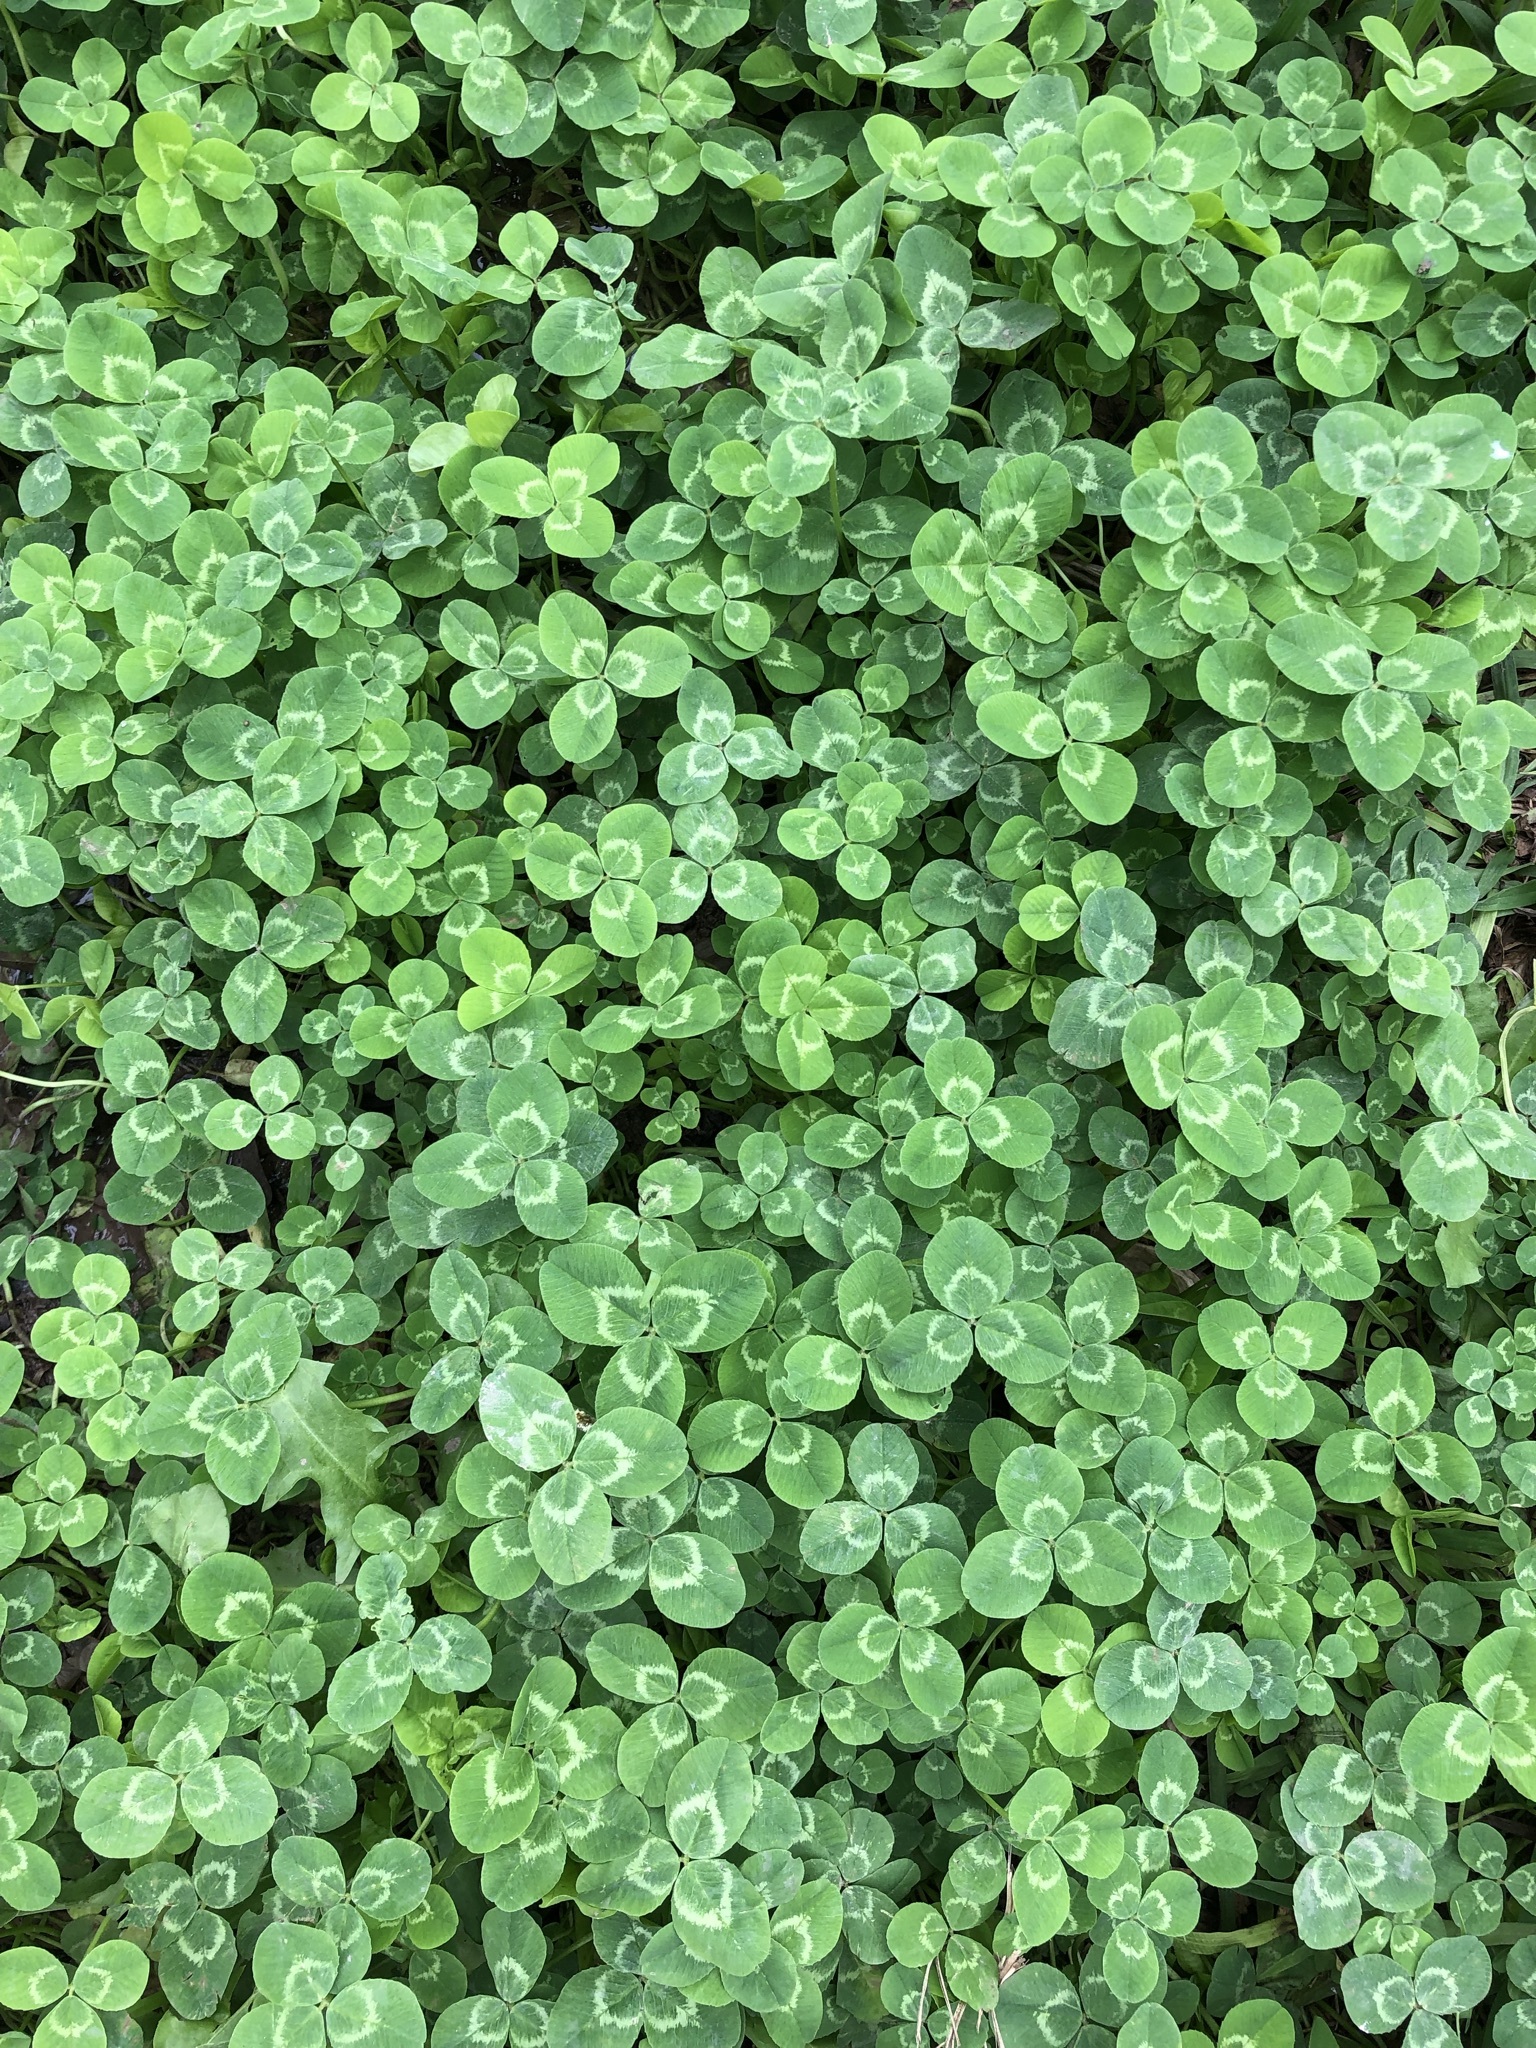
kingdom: Plantae
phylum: Tracheophyta
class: Magnoliopsida
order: Fabales
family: Fabaceae
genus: Trifolium
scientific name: Trifolium repens
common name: White clover
